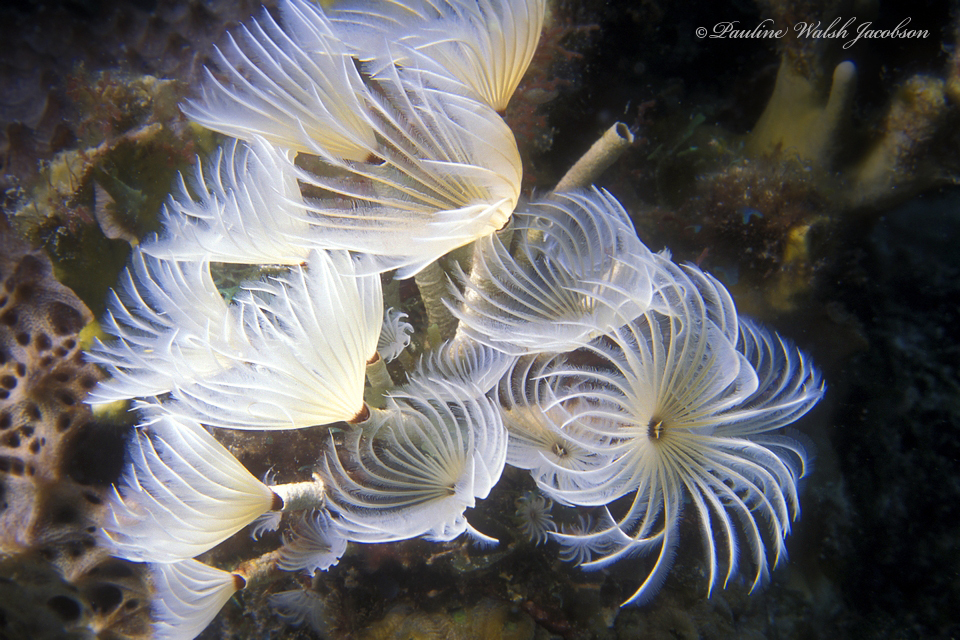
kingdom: Animalia
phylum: Annelida
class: Polychaeta
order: Sabellida
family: Sabellidae
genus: Bispira
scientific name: Bispira brunnea
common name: Social feather duster
